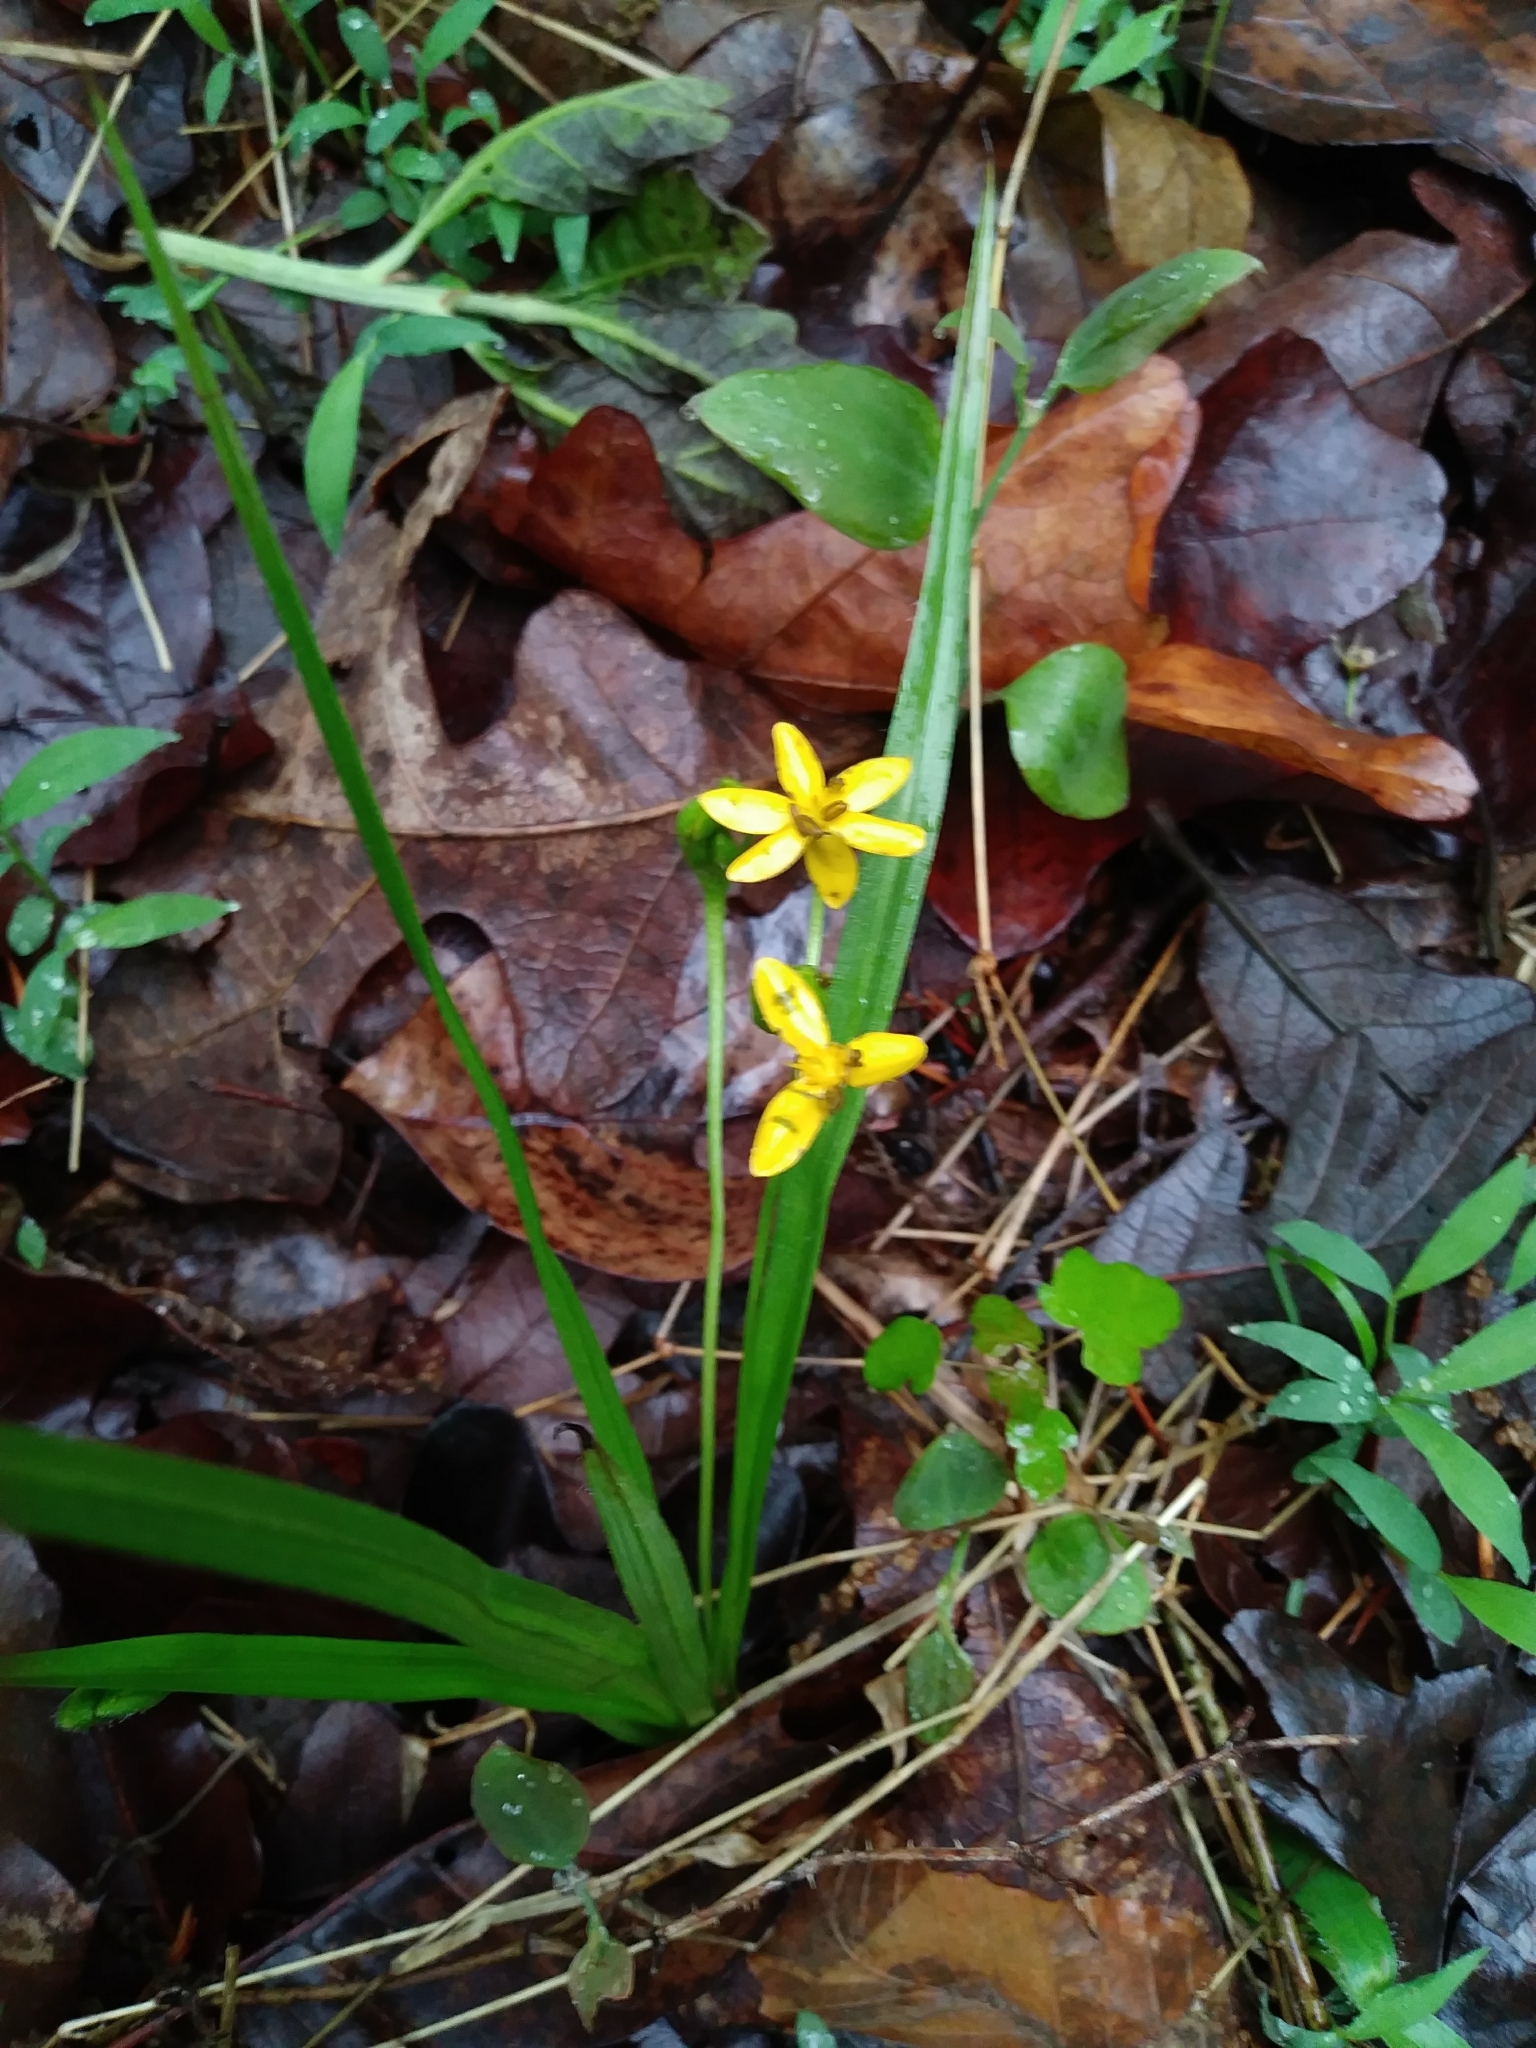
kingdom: Plantae
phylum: Tracheophyta
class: Liliopsida
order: Asparagales
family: Hypoxidaceae
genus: Hypoxis
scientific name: Hypoxis hirsuta
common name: Common goldstar
